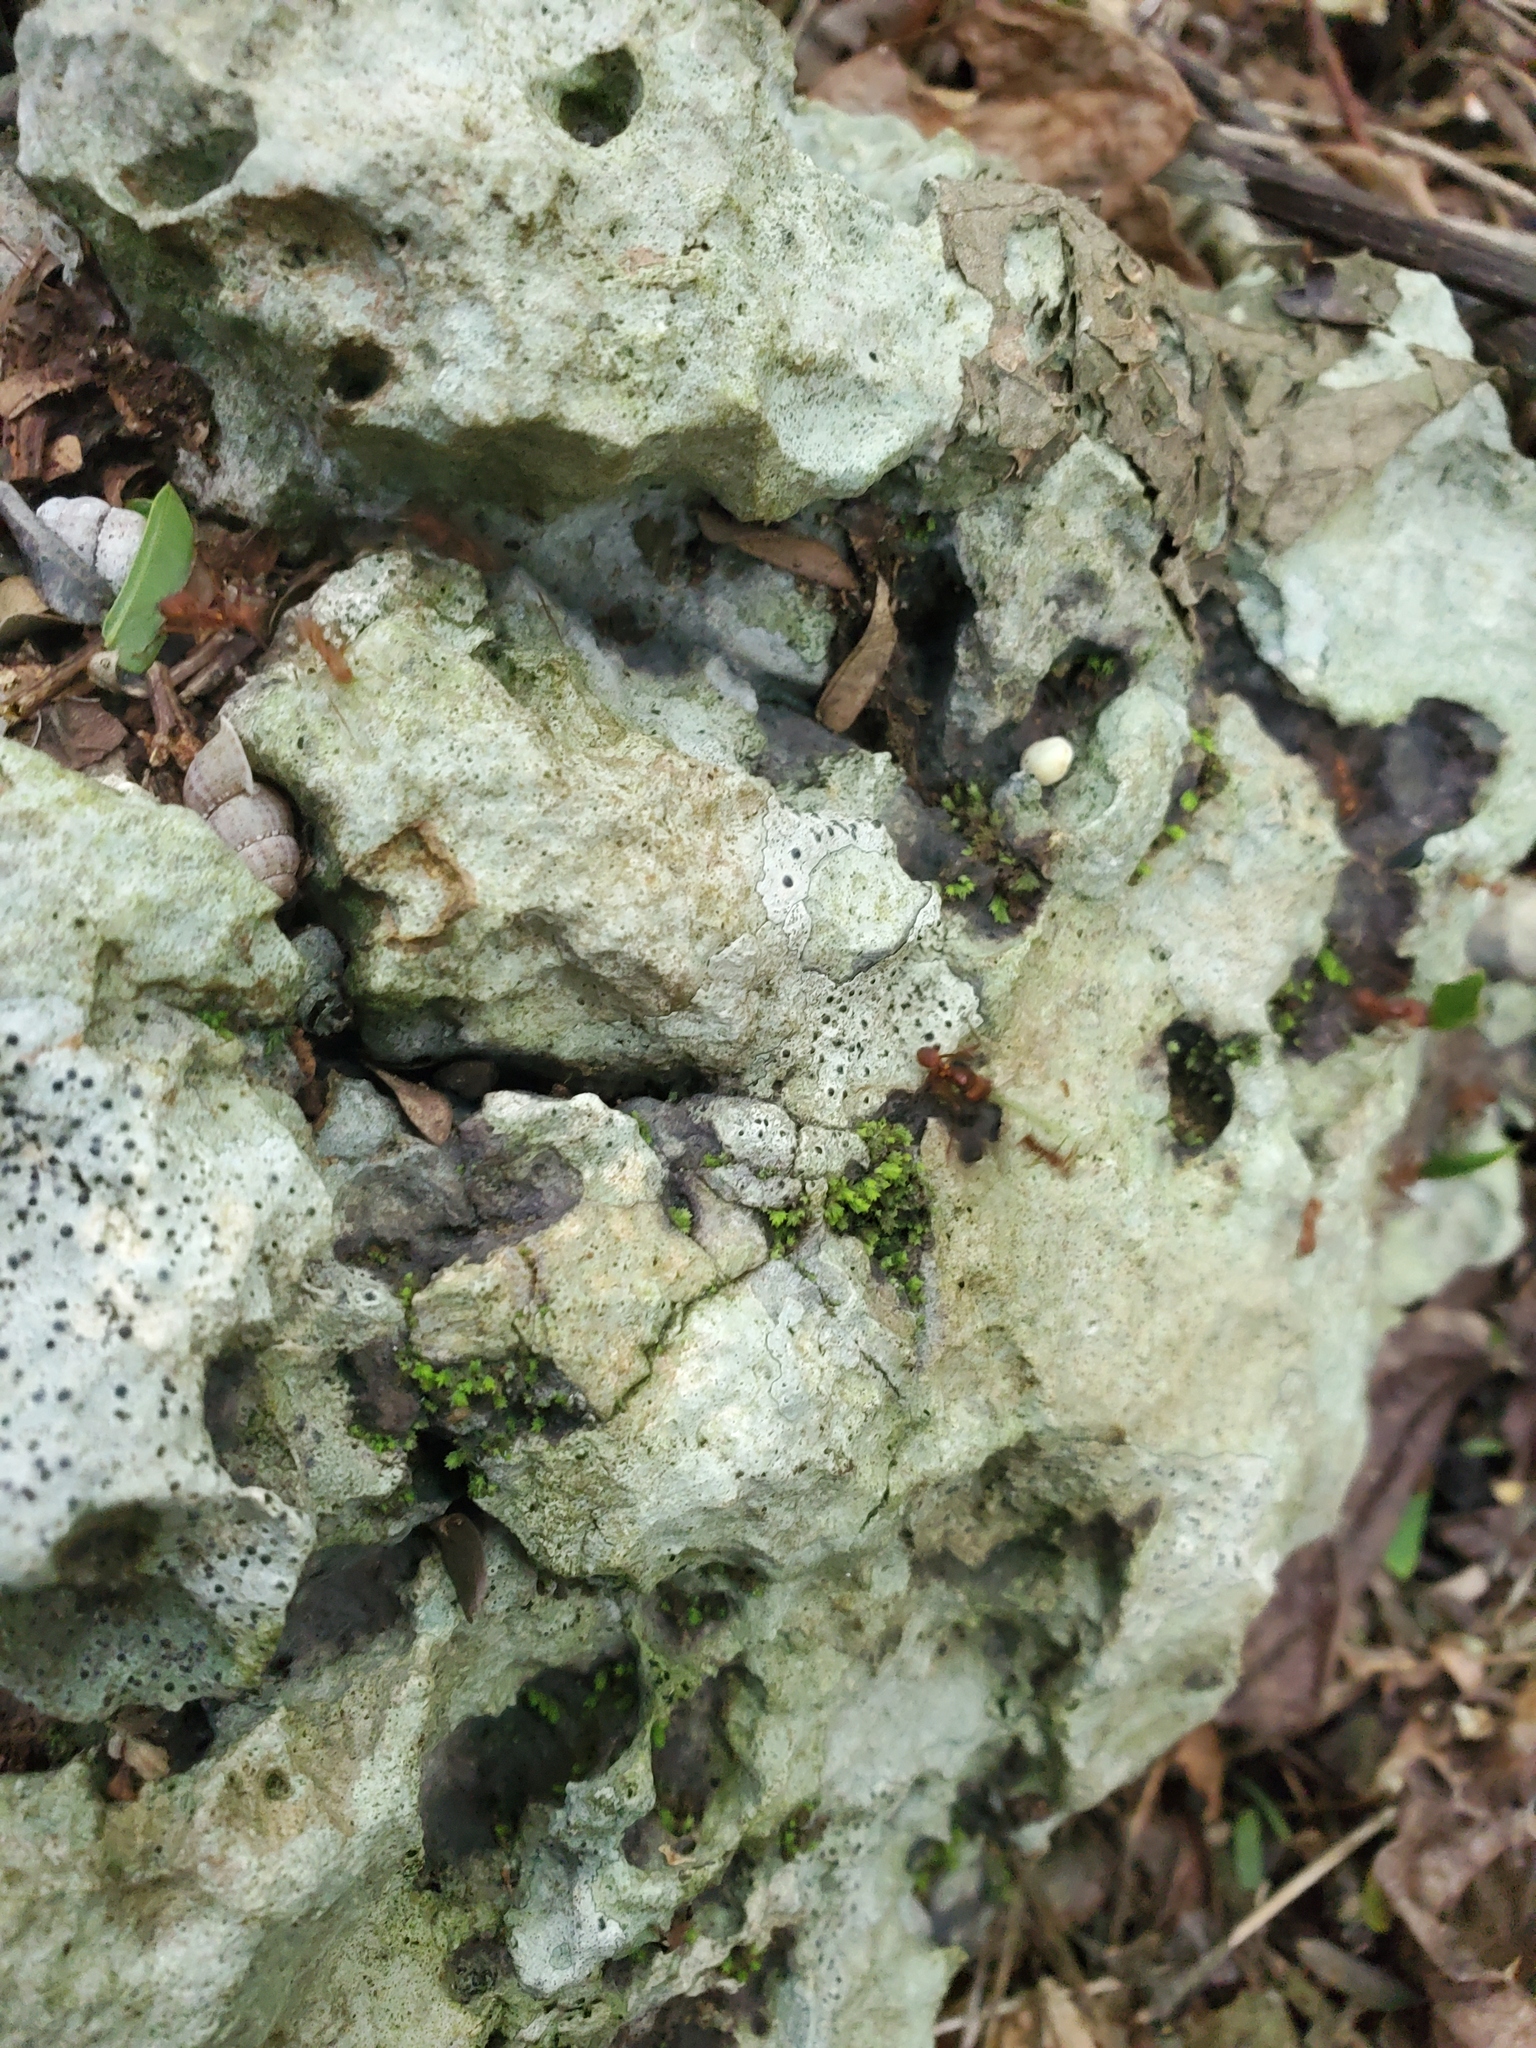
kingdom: Animalia
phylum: Arthropoda
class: Insecta
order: Hymenoptera
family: Formicidae
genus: Atta
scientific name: Atta cephalotes
